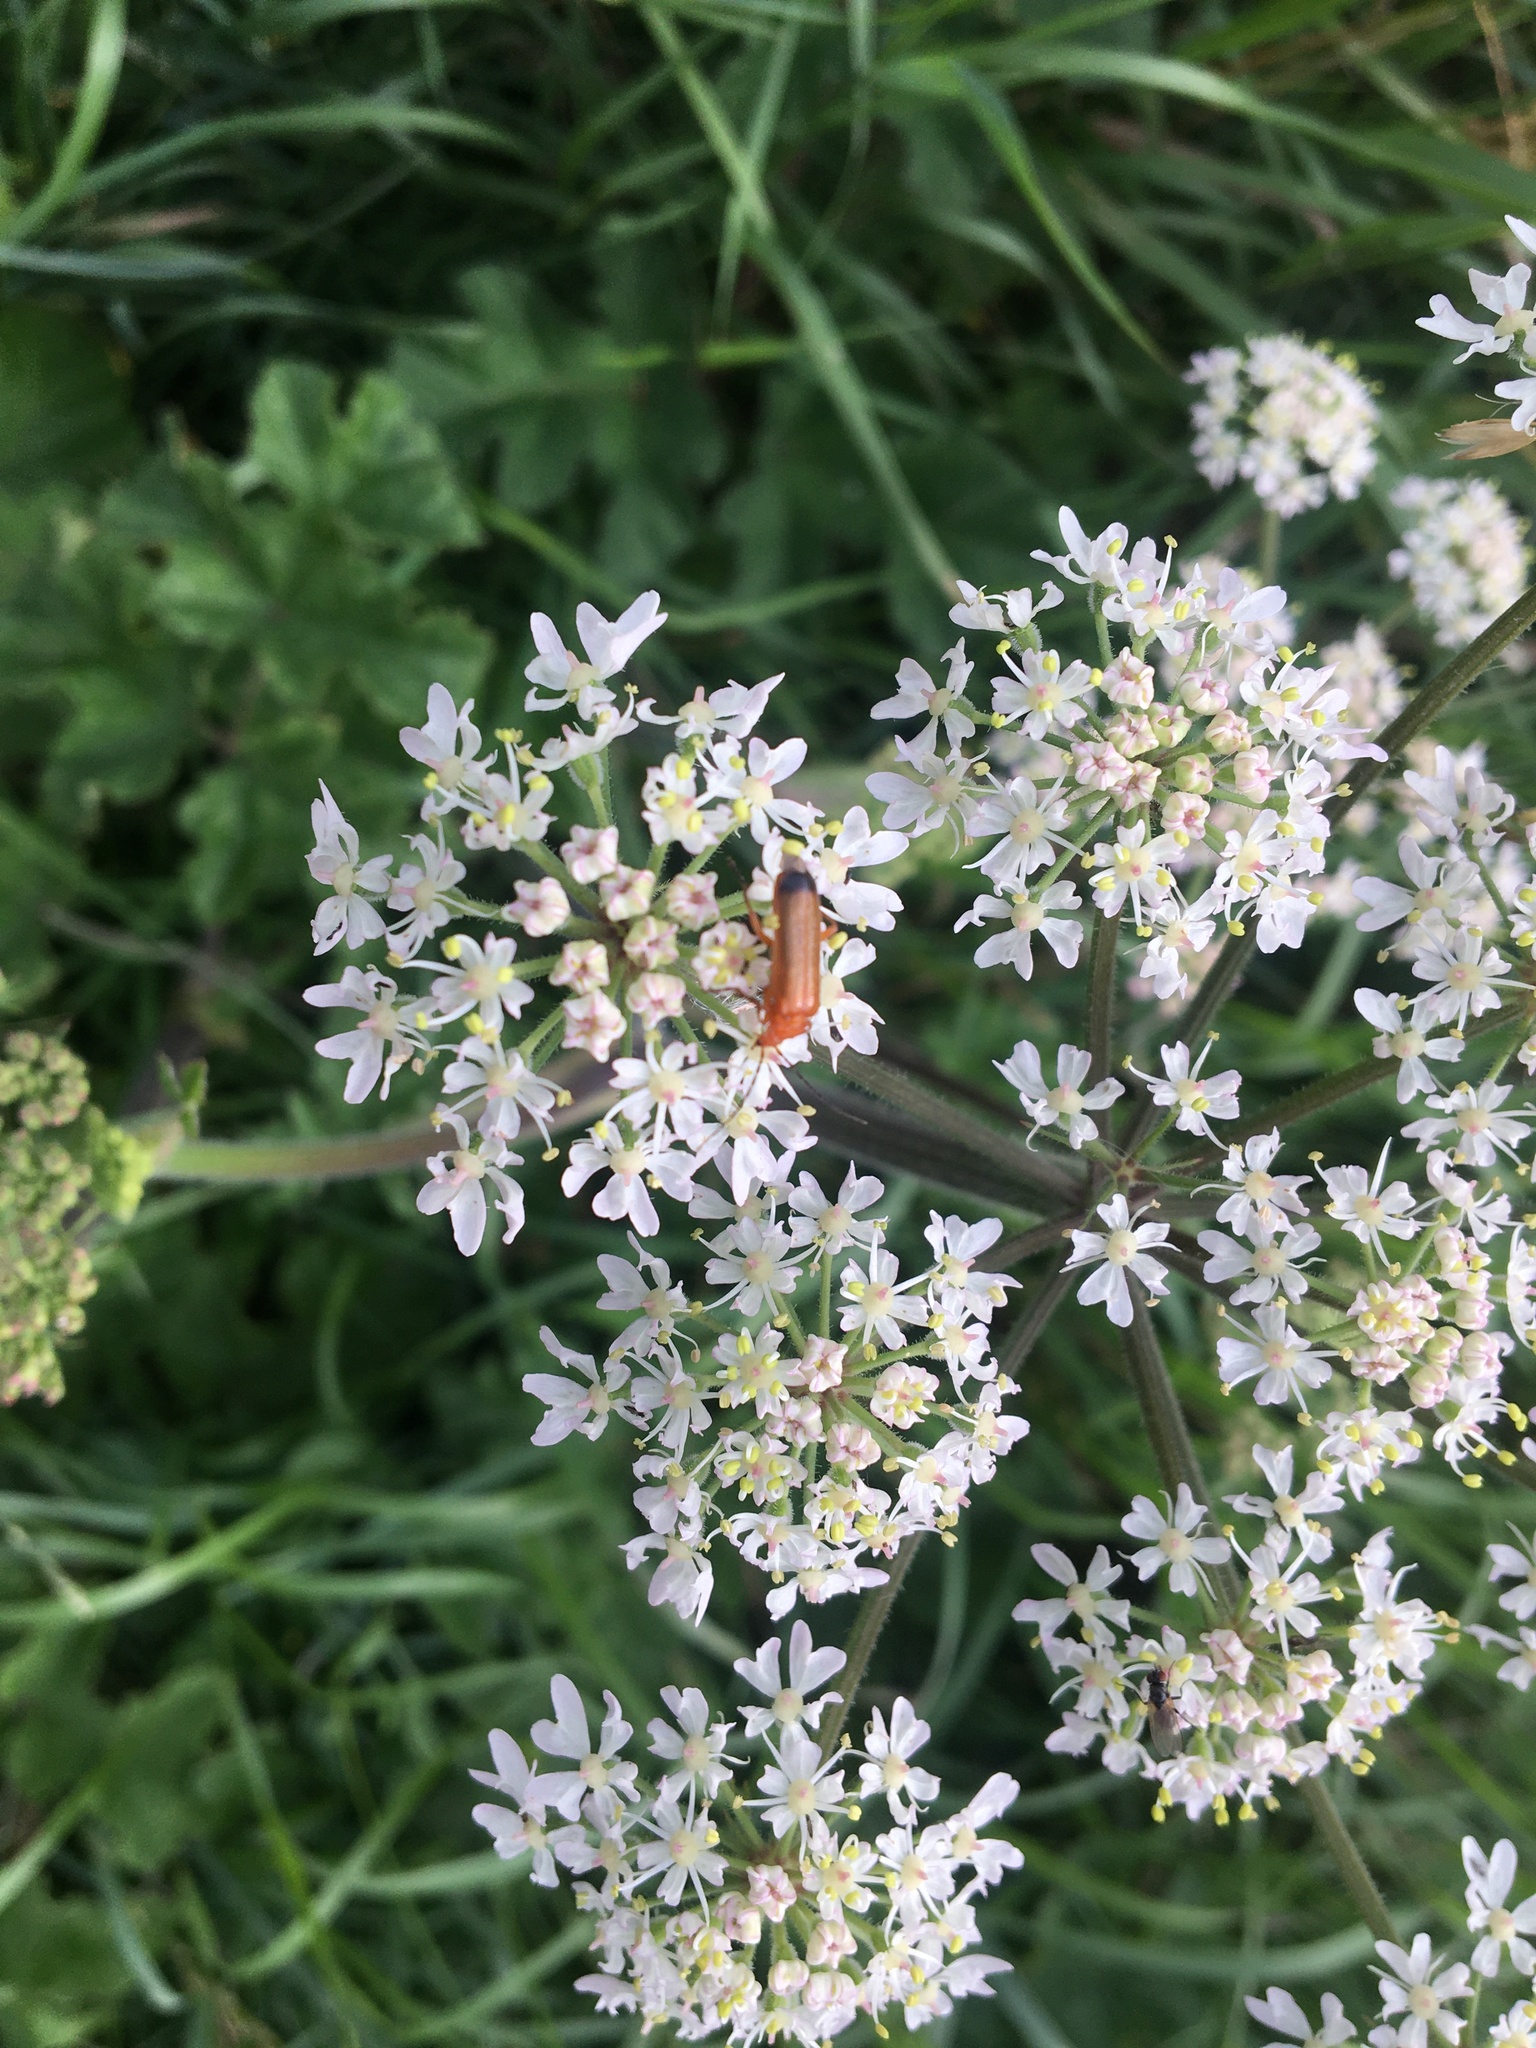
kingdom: Animalia
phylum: Arthropoda
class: Insecta
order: Coleoptera
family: Cantharidae
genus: Rhagonycha
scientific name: Rhagonycha fulva
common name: Common red soldier beetle
